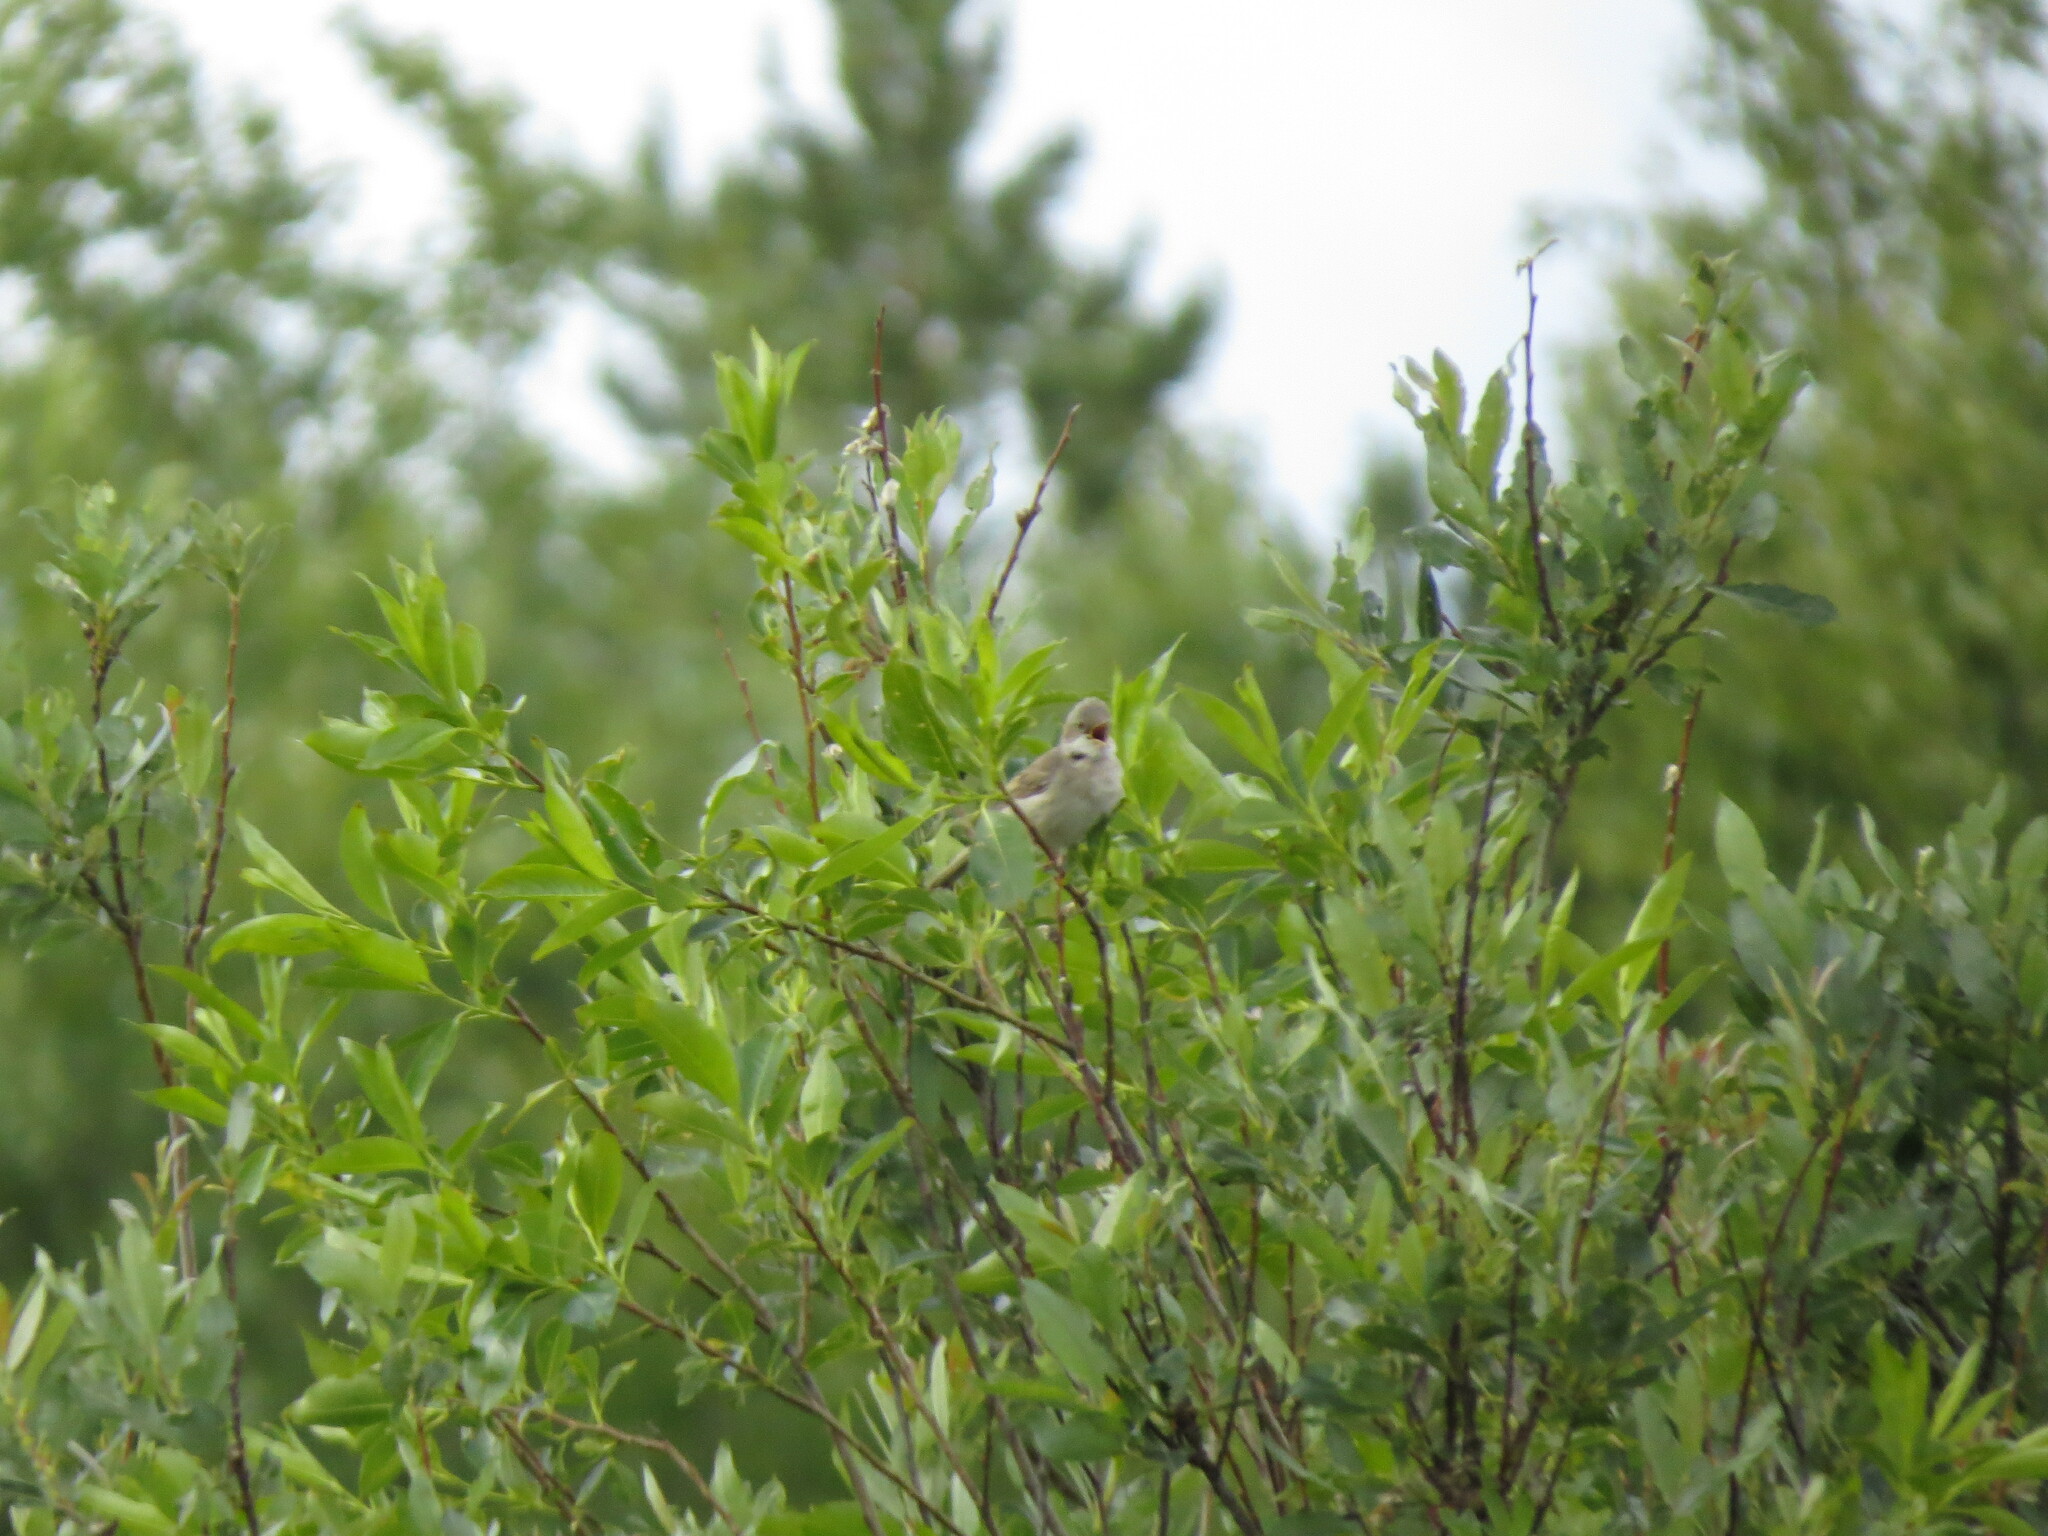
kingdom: Animalia
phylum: Chordata
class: Aves
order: Passeriformes
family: Sylviidae
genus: Sylvia
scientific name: Sylvia communis
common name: Common whitethroat
